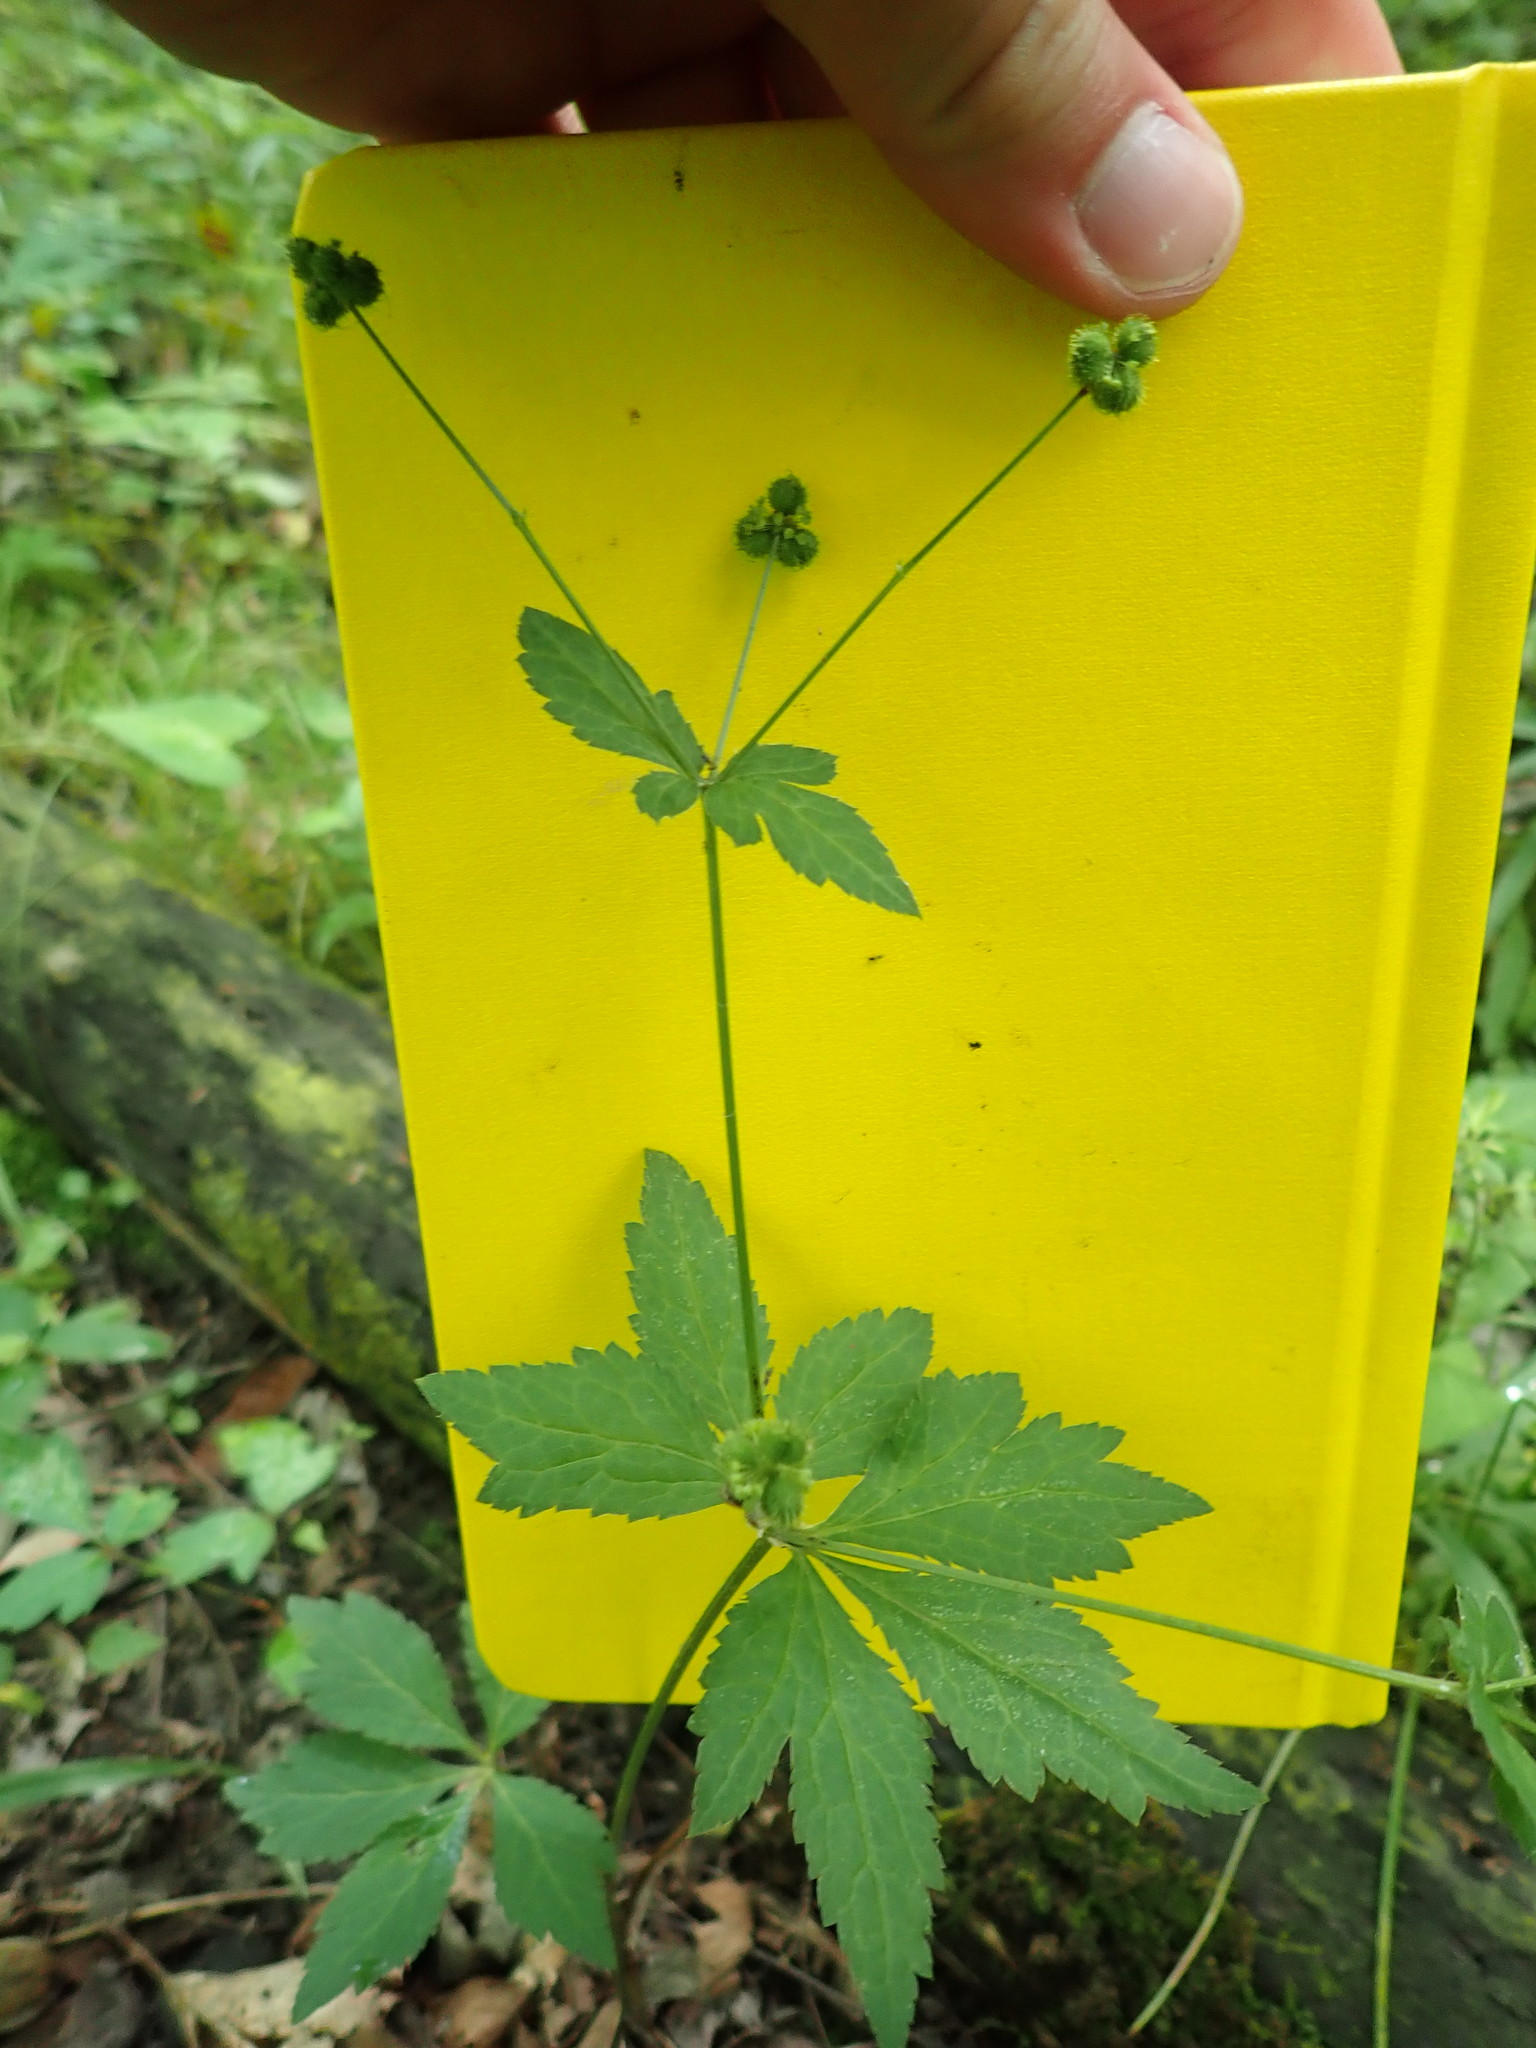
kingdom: Plantae
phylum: Tracheophyta
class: Magnoliopsida
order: Apiales
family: Apiaceae
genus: Sanicula
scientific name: Sanicula canadensis
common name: Canada sanicle
